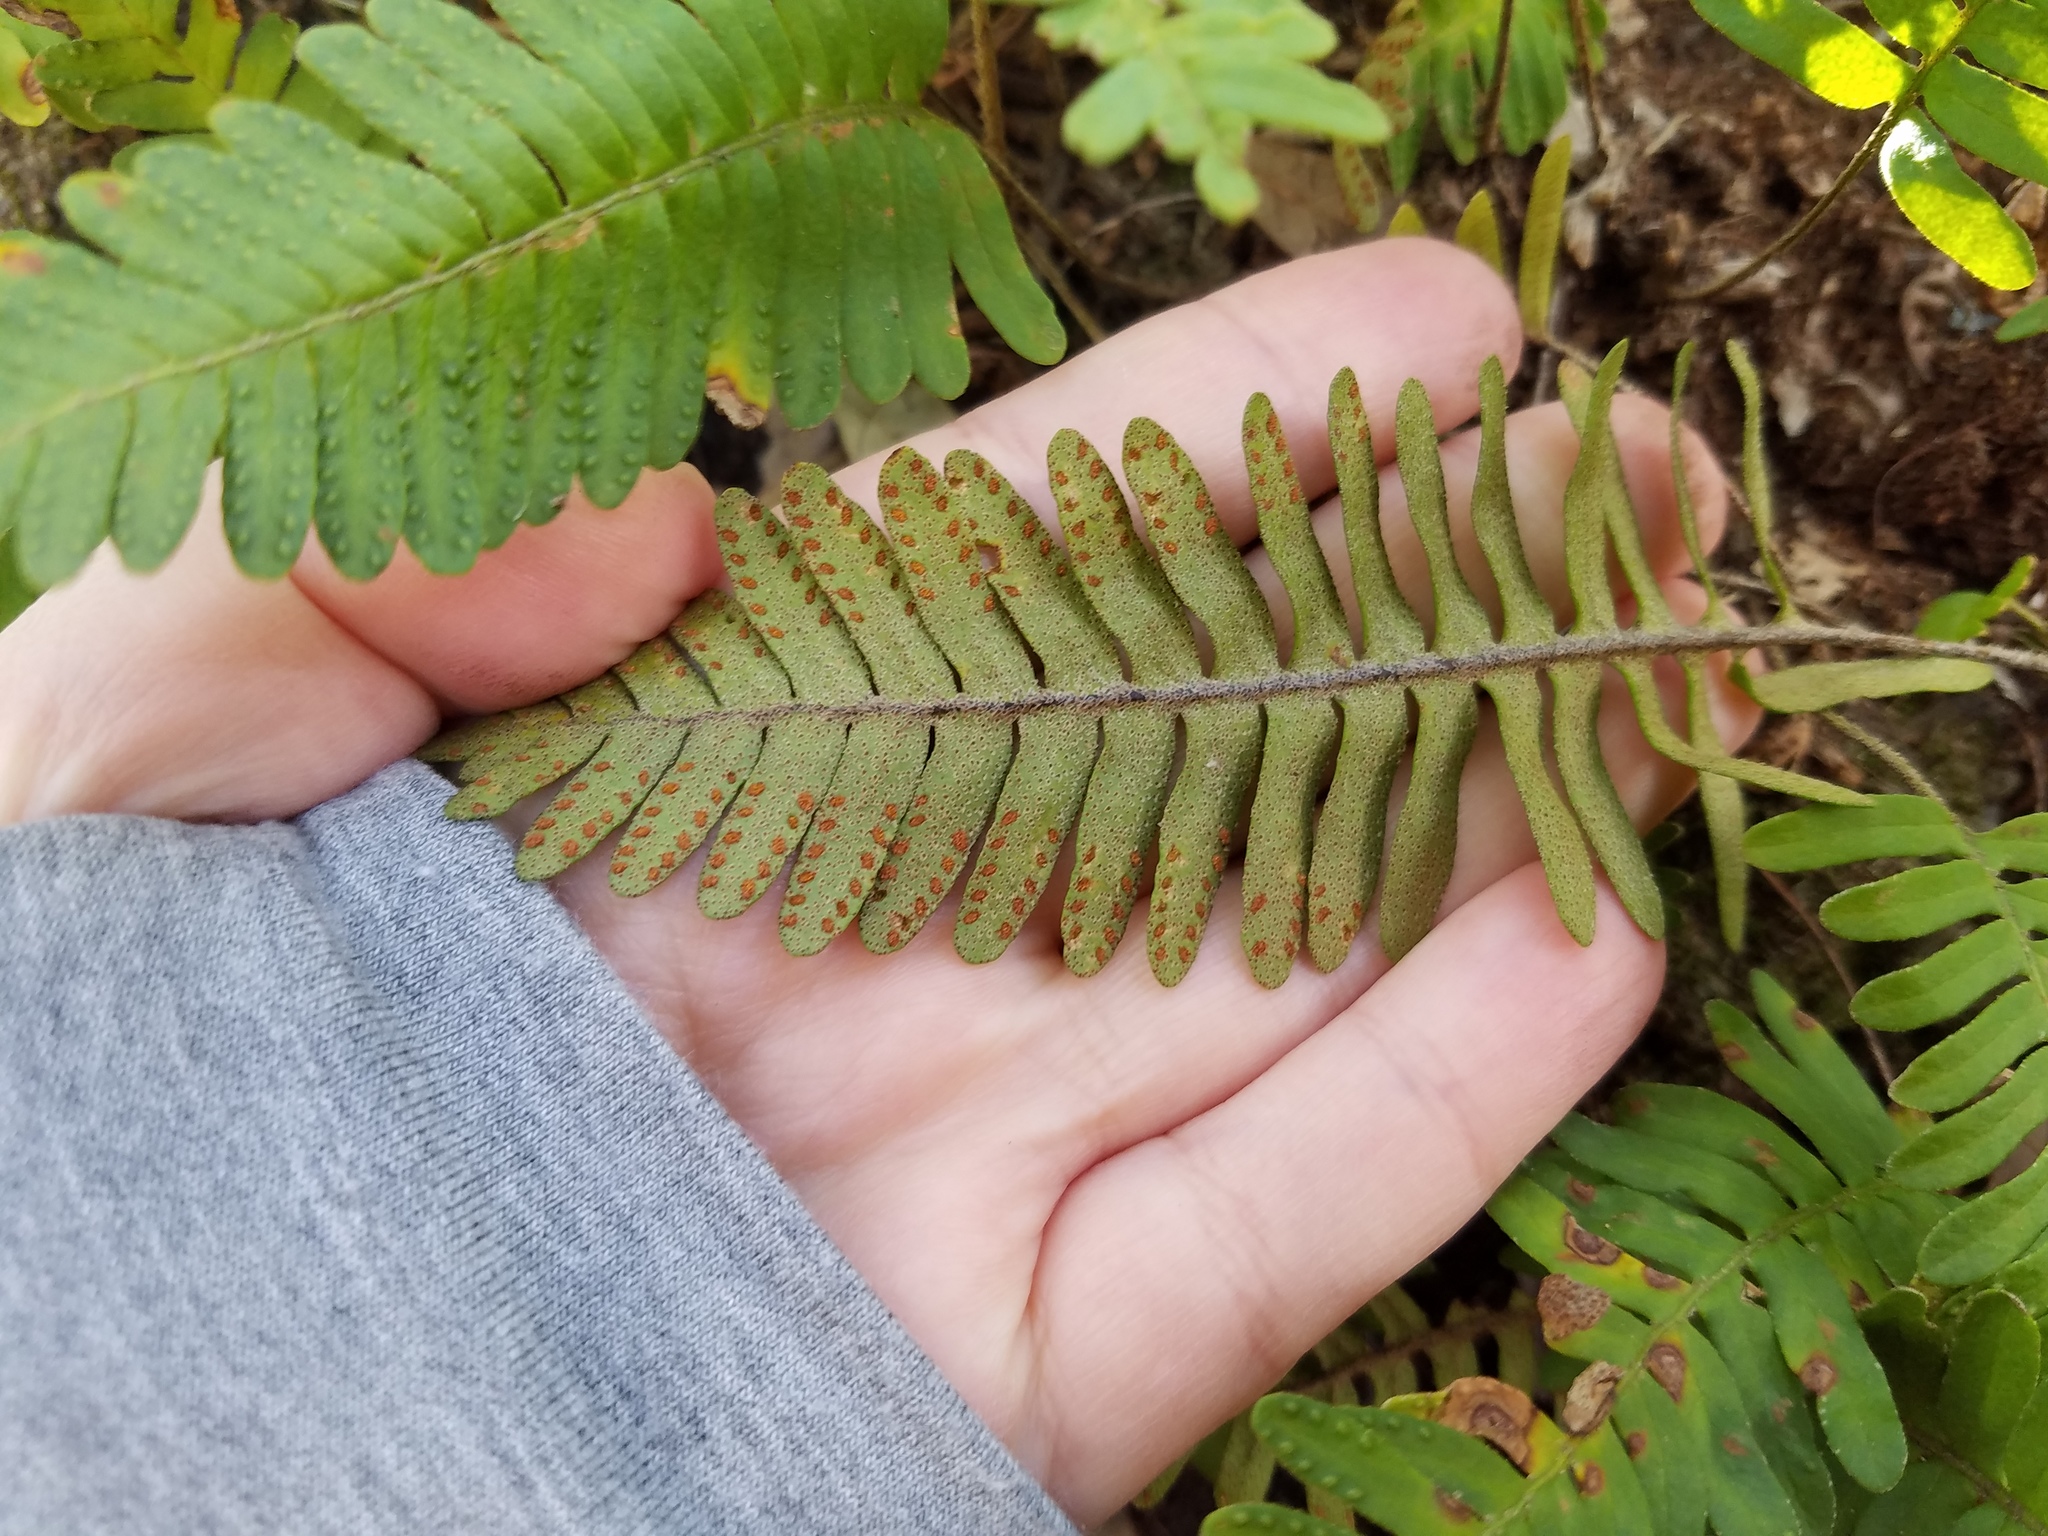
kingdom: Plantae
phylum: Tracheophyta
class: Polypodiopsida
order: Polypodiales
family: Polypodiaceae
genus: Pleopeltis
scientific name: Pleopeltis michauxiana
